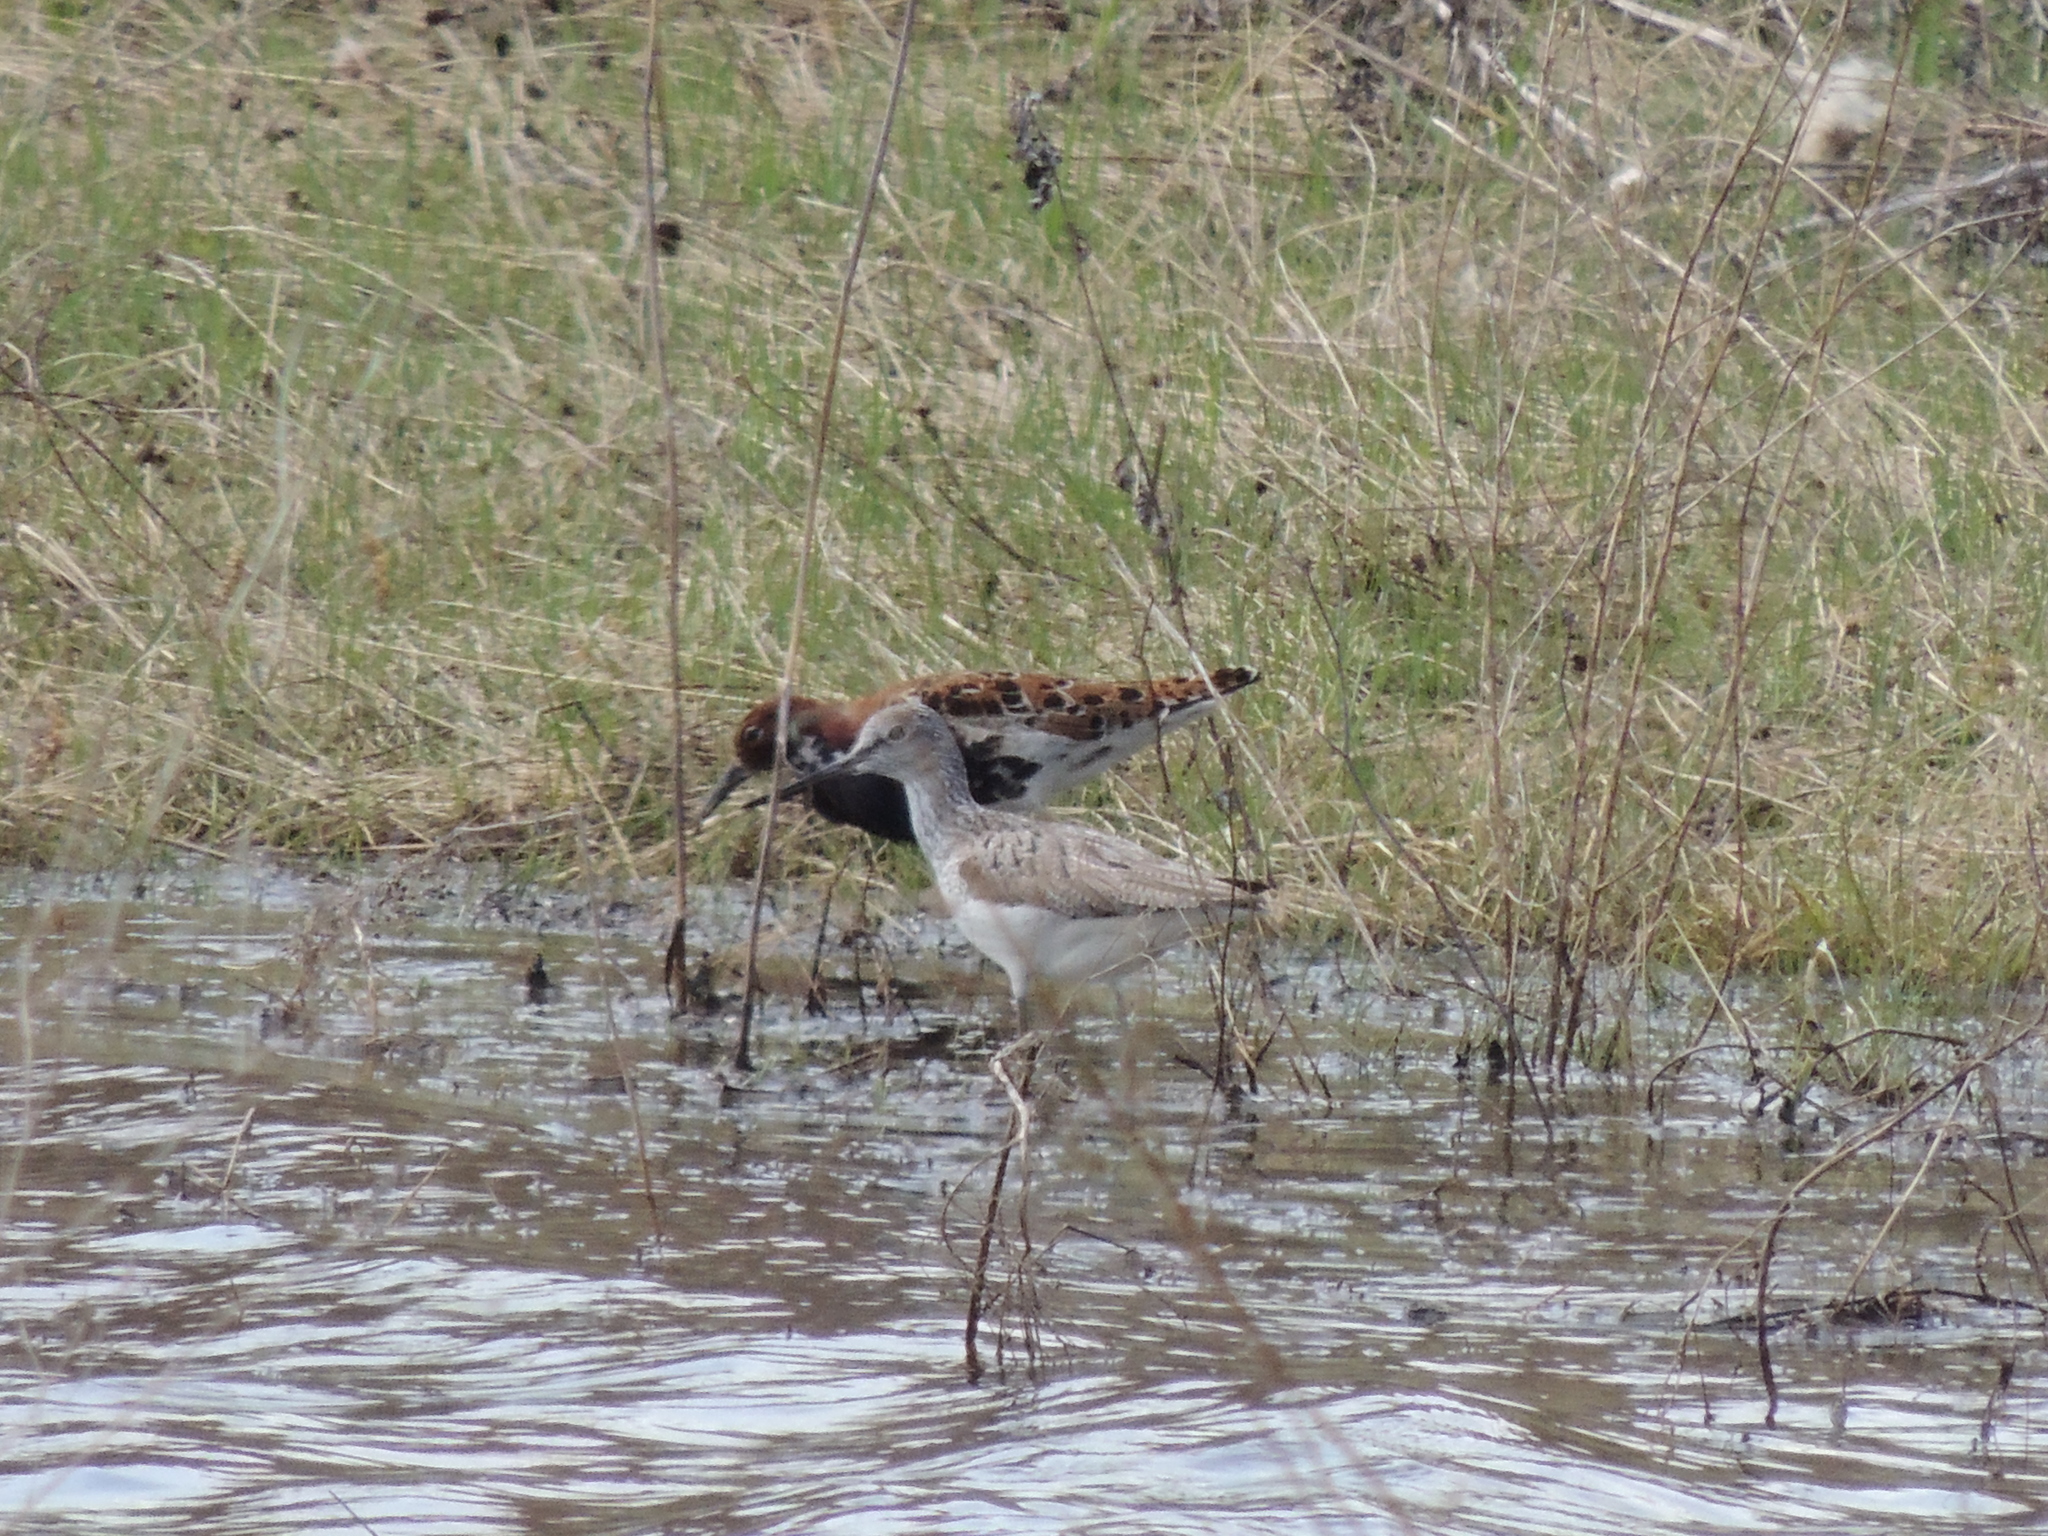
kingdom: Animalia
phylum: Chordata
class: Aves
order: Charadriiformes
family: Scolopacidae
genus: Calidris
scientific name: Calidris pugnax
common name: Ruff
